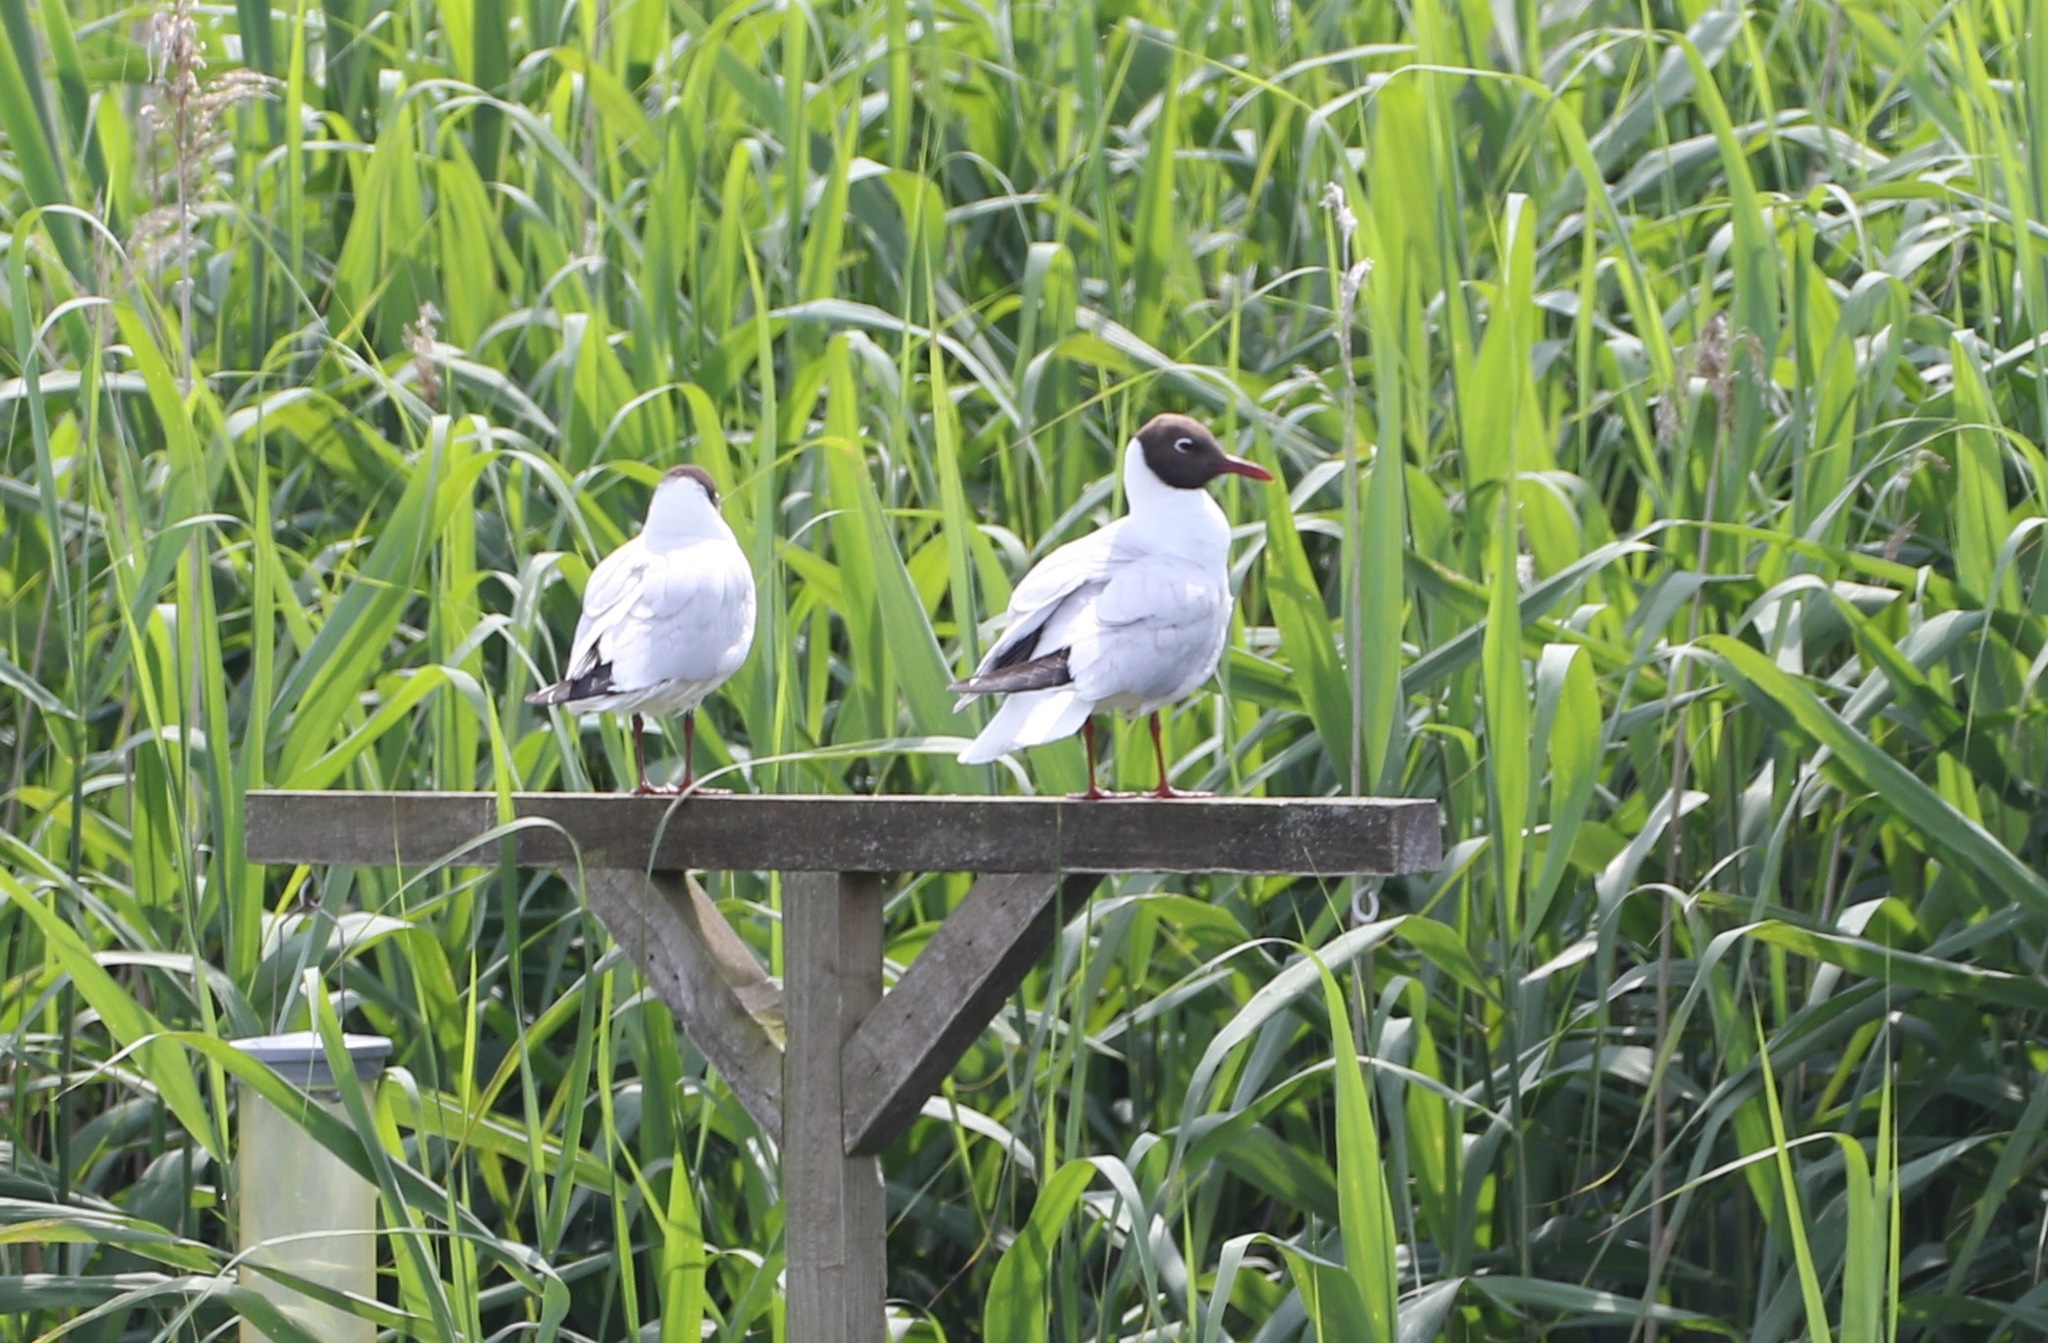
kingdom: Animalia
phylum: Chordata
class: Aves
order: Charadriiformes
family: Laridae
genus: Chroicocephalus
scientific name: Chroicocephalus ridibundus
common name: Black-headed gull
